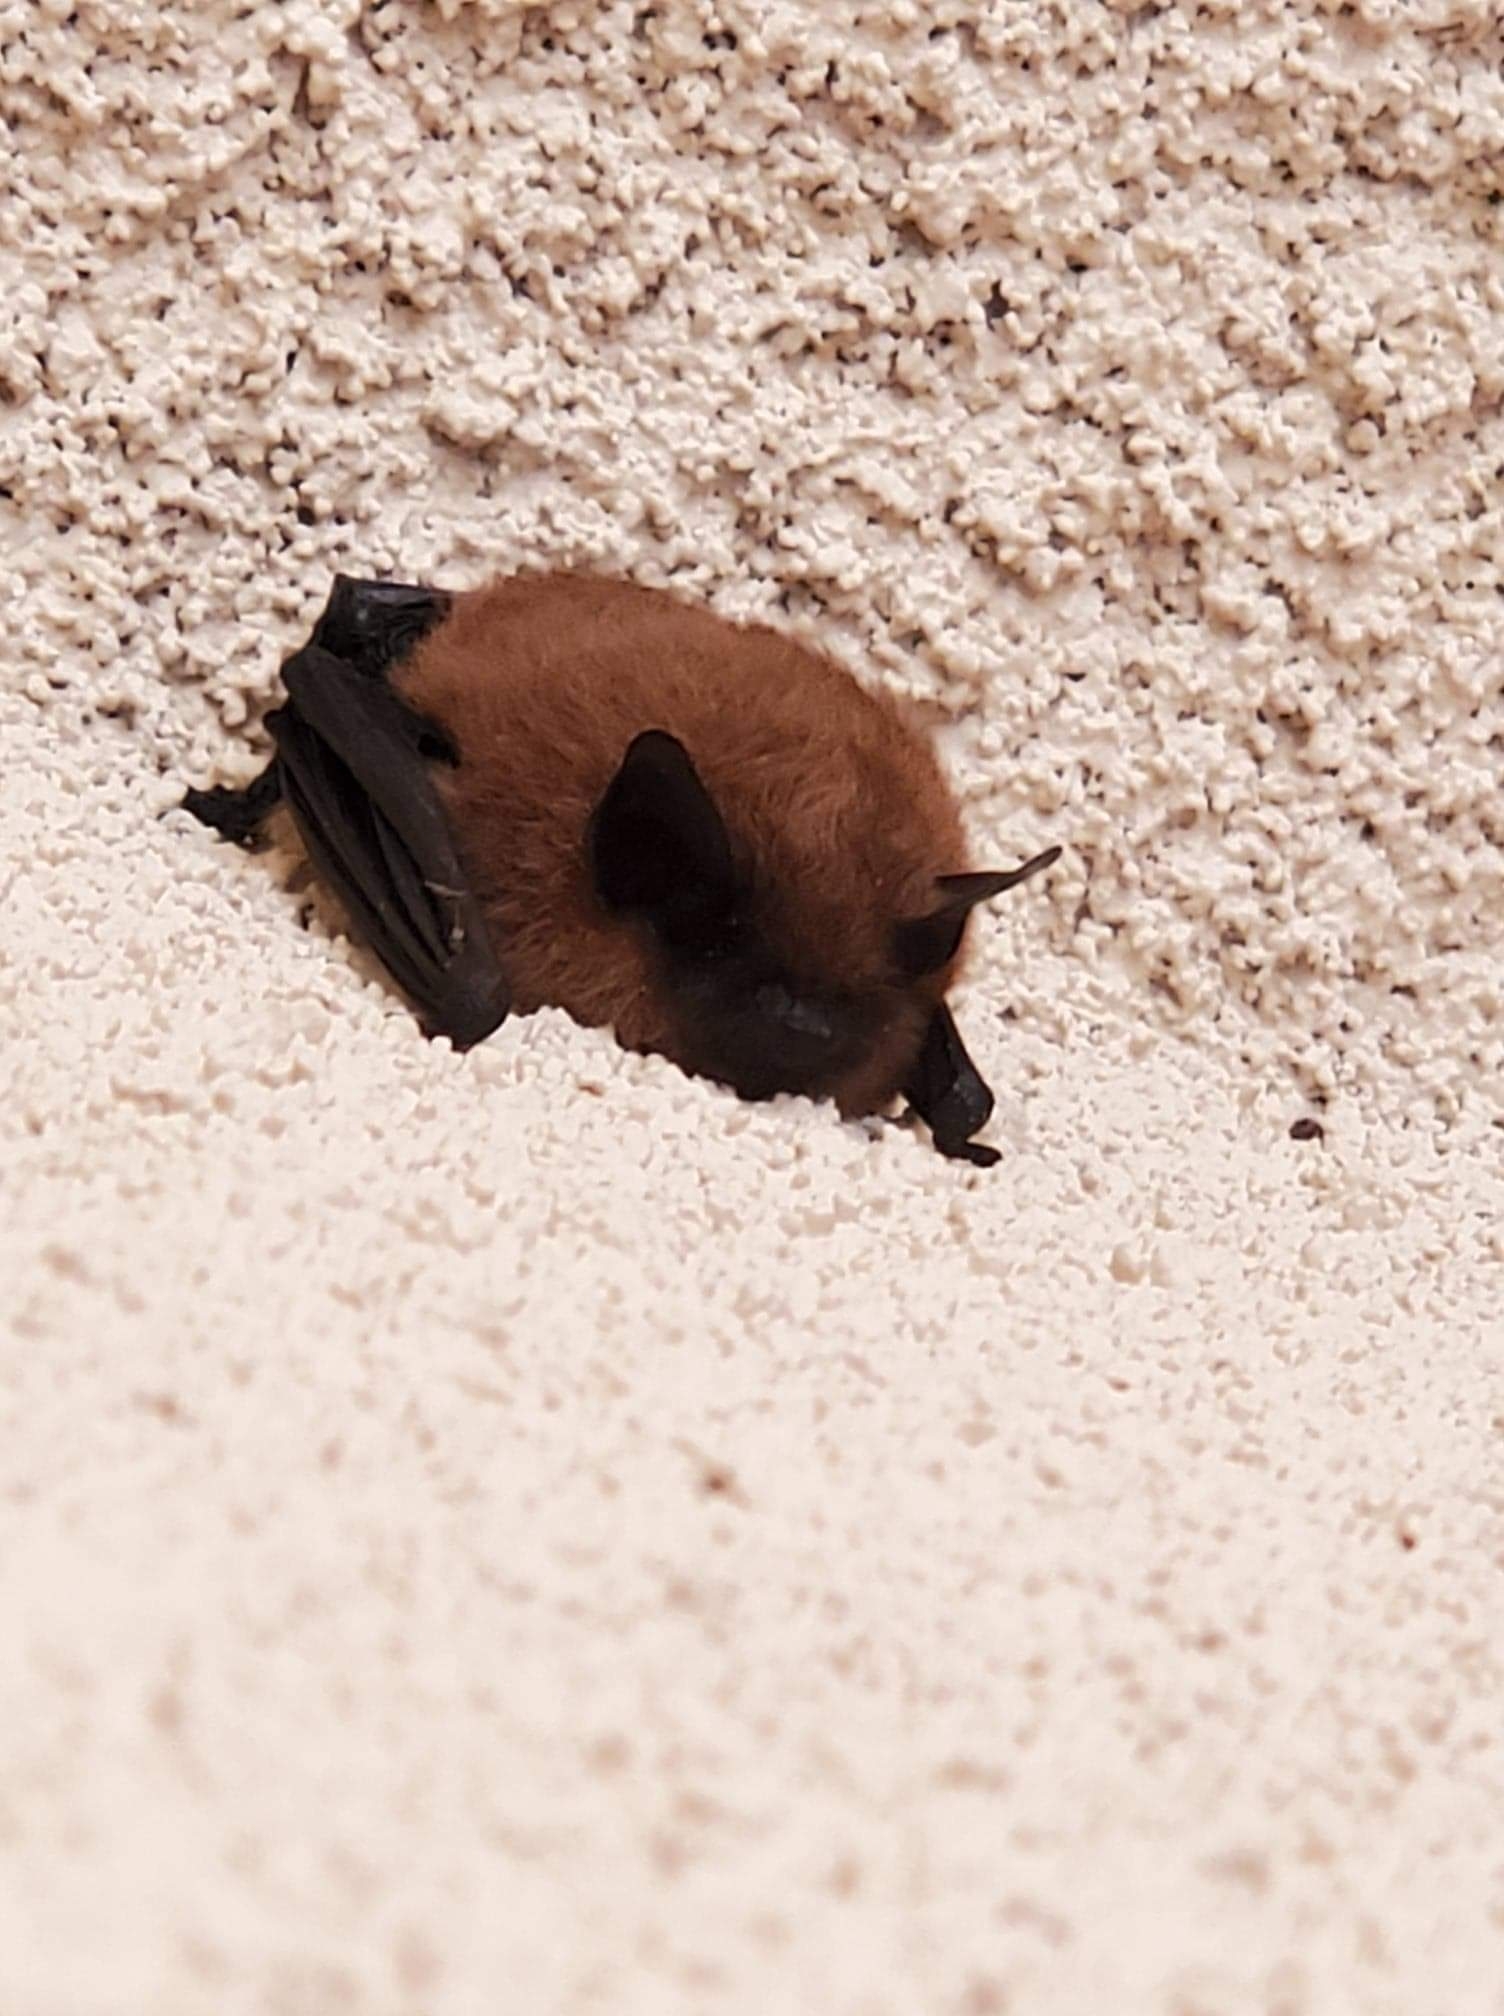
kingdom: Animalia
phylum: Chordata
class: Mammalia
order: Chiroptera
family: Vespertilionidae
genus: Myotis
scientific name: Myotis
